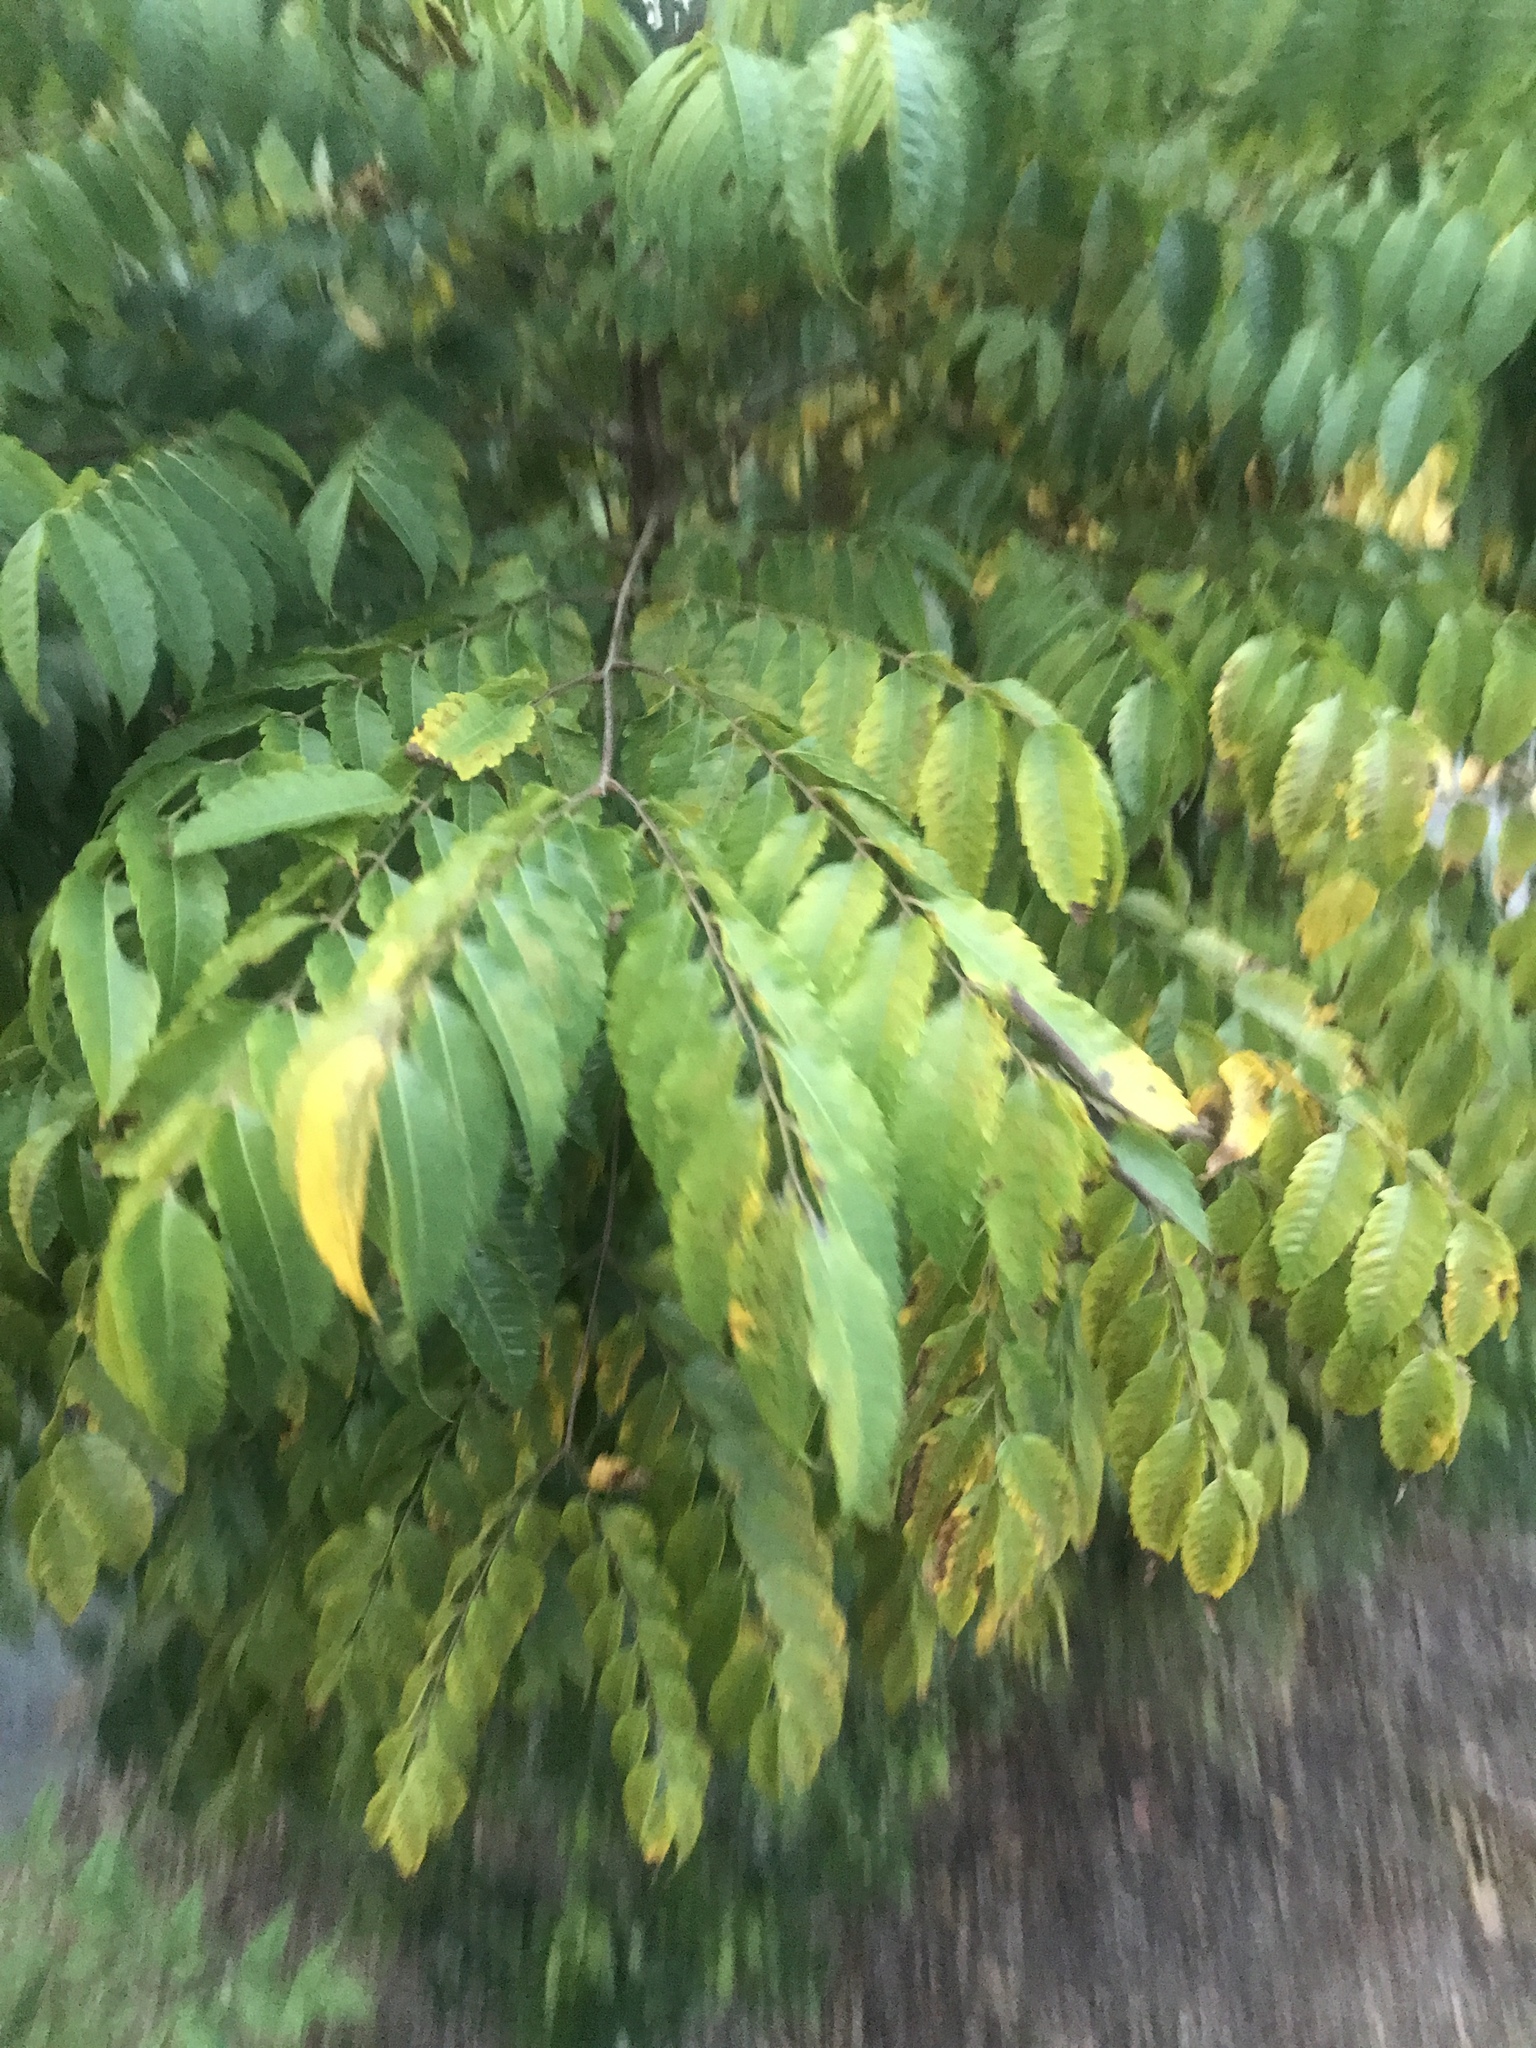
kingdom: Plantae
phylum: Tracheophyta
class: Magnoliopsida
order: Sapindales
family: Sapindaceae
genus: Koelreuteria
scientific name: Koelreuteria elegans
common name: Chinese flame tree
